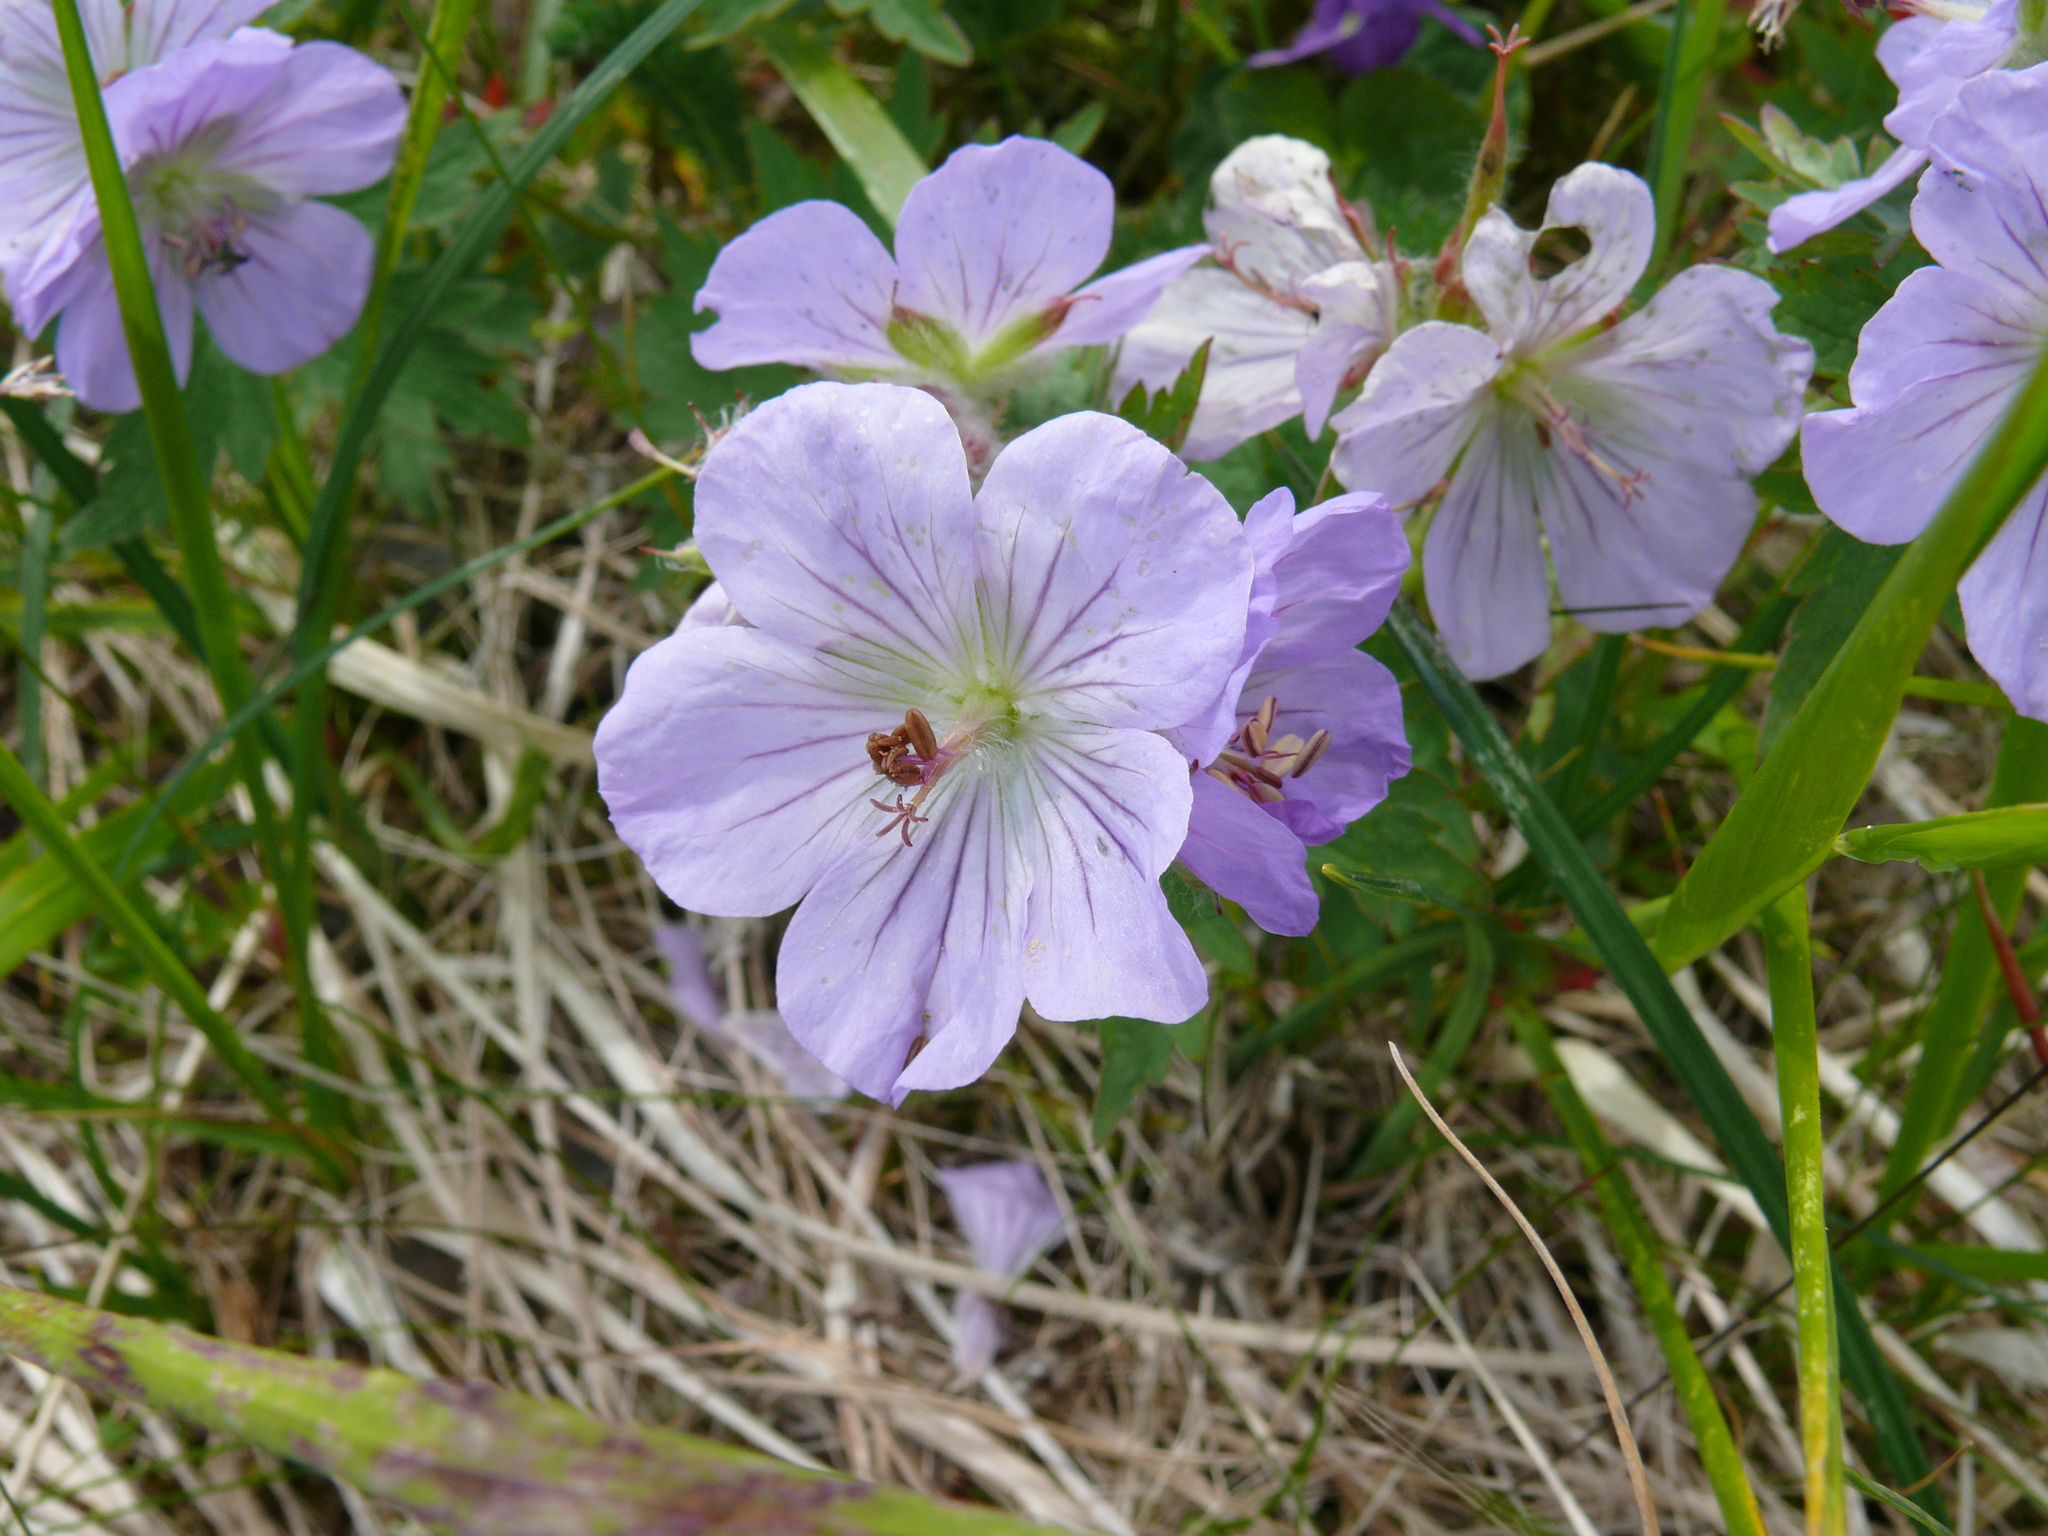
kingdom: Plantae
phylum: Tracheophyta
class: Magnoliopsida
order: Geraniales
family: Geraniaceae
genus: Geranium
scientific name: Geranium erianthum
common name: Northern crane's-bill
